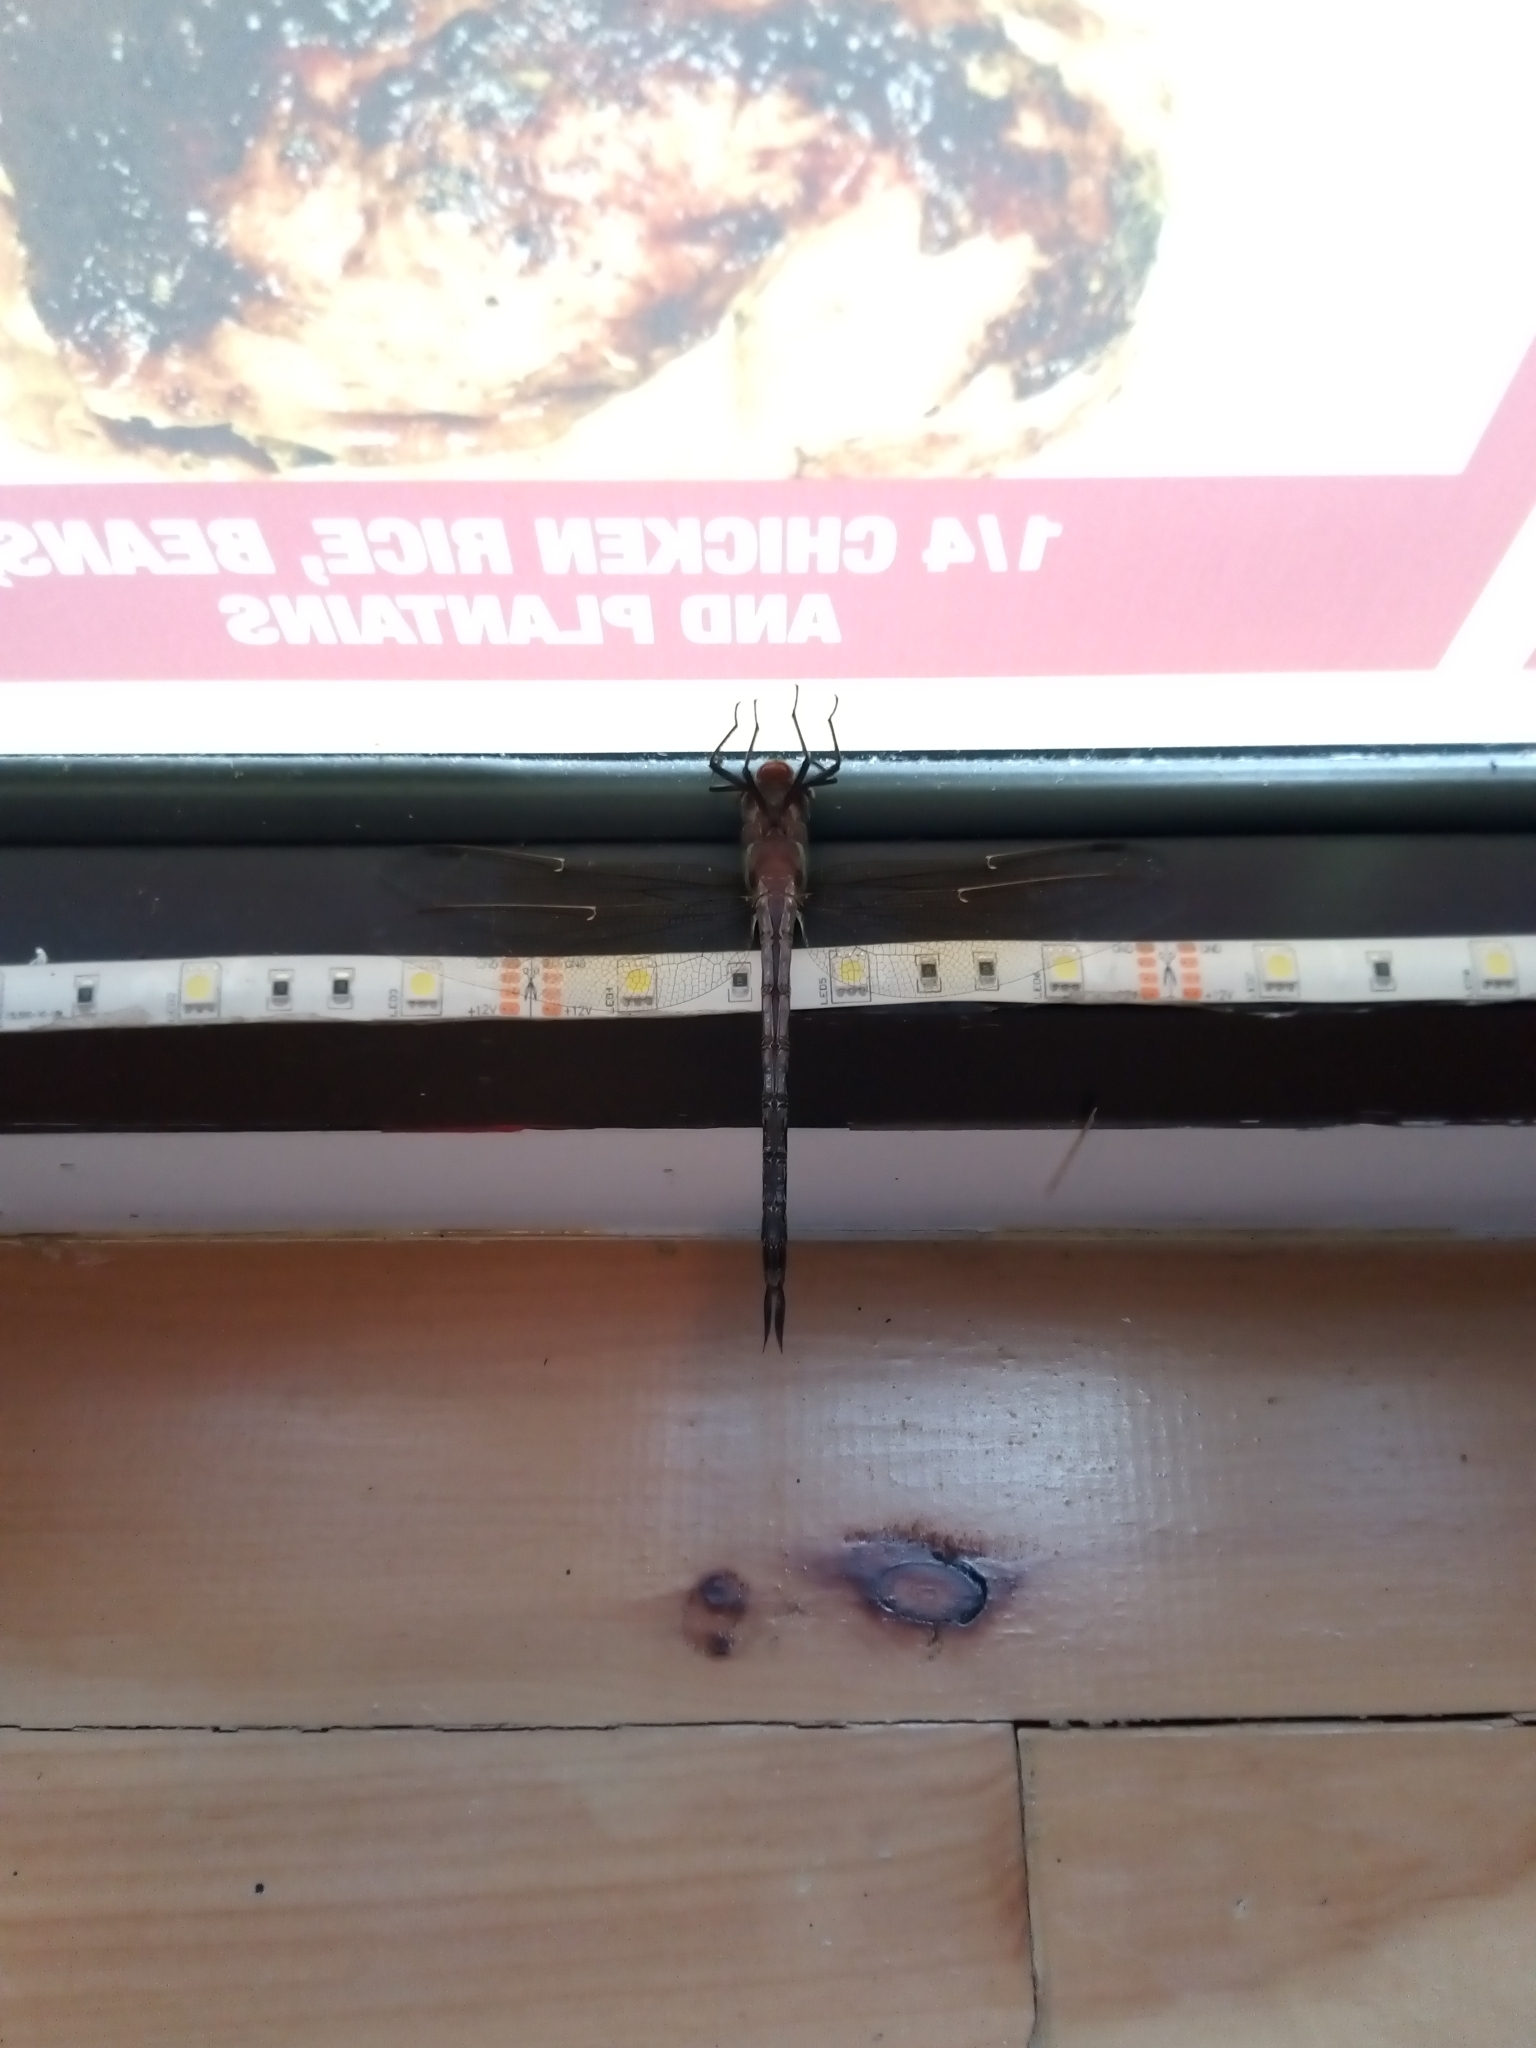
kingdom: Animalia
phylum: Arthropoda
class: Insecta
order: Odonata
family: Aeshnidae
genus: Epiaeschna
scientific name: Epiaeschna heros
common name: Swamp darner
